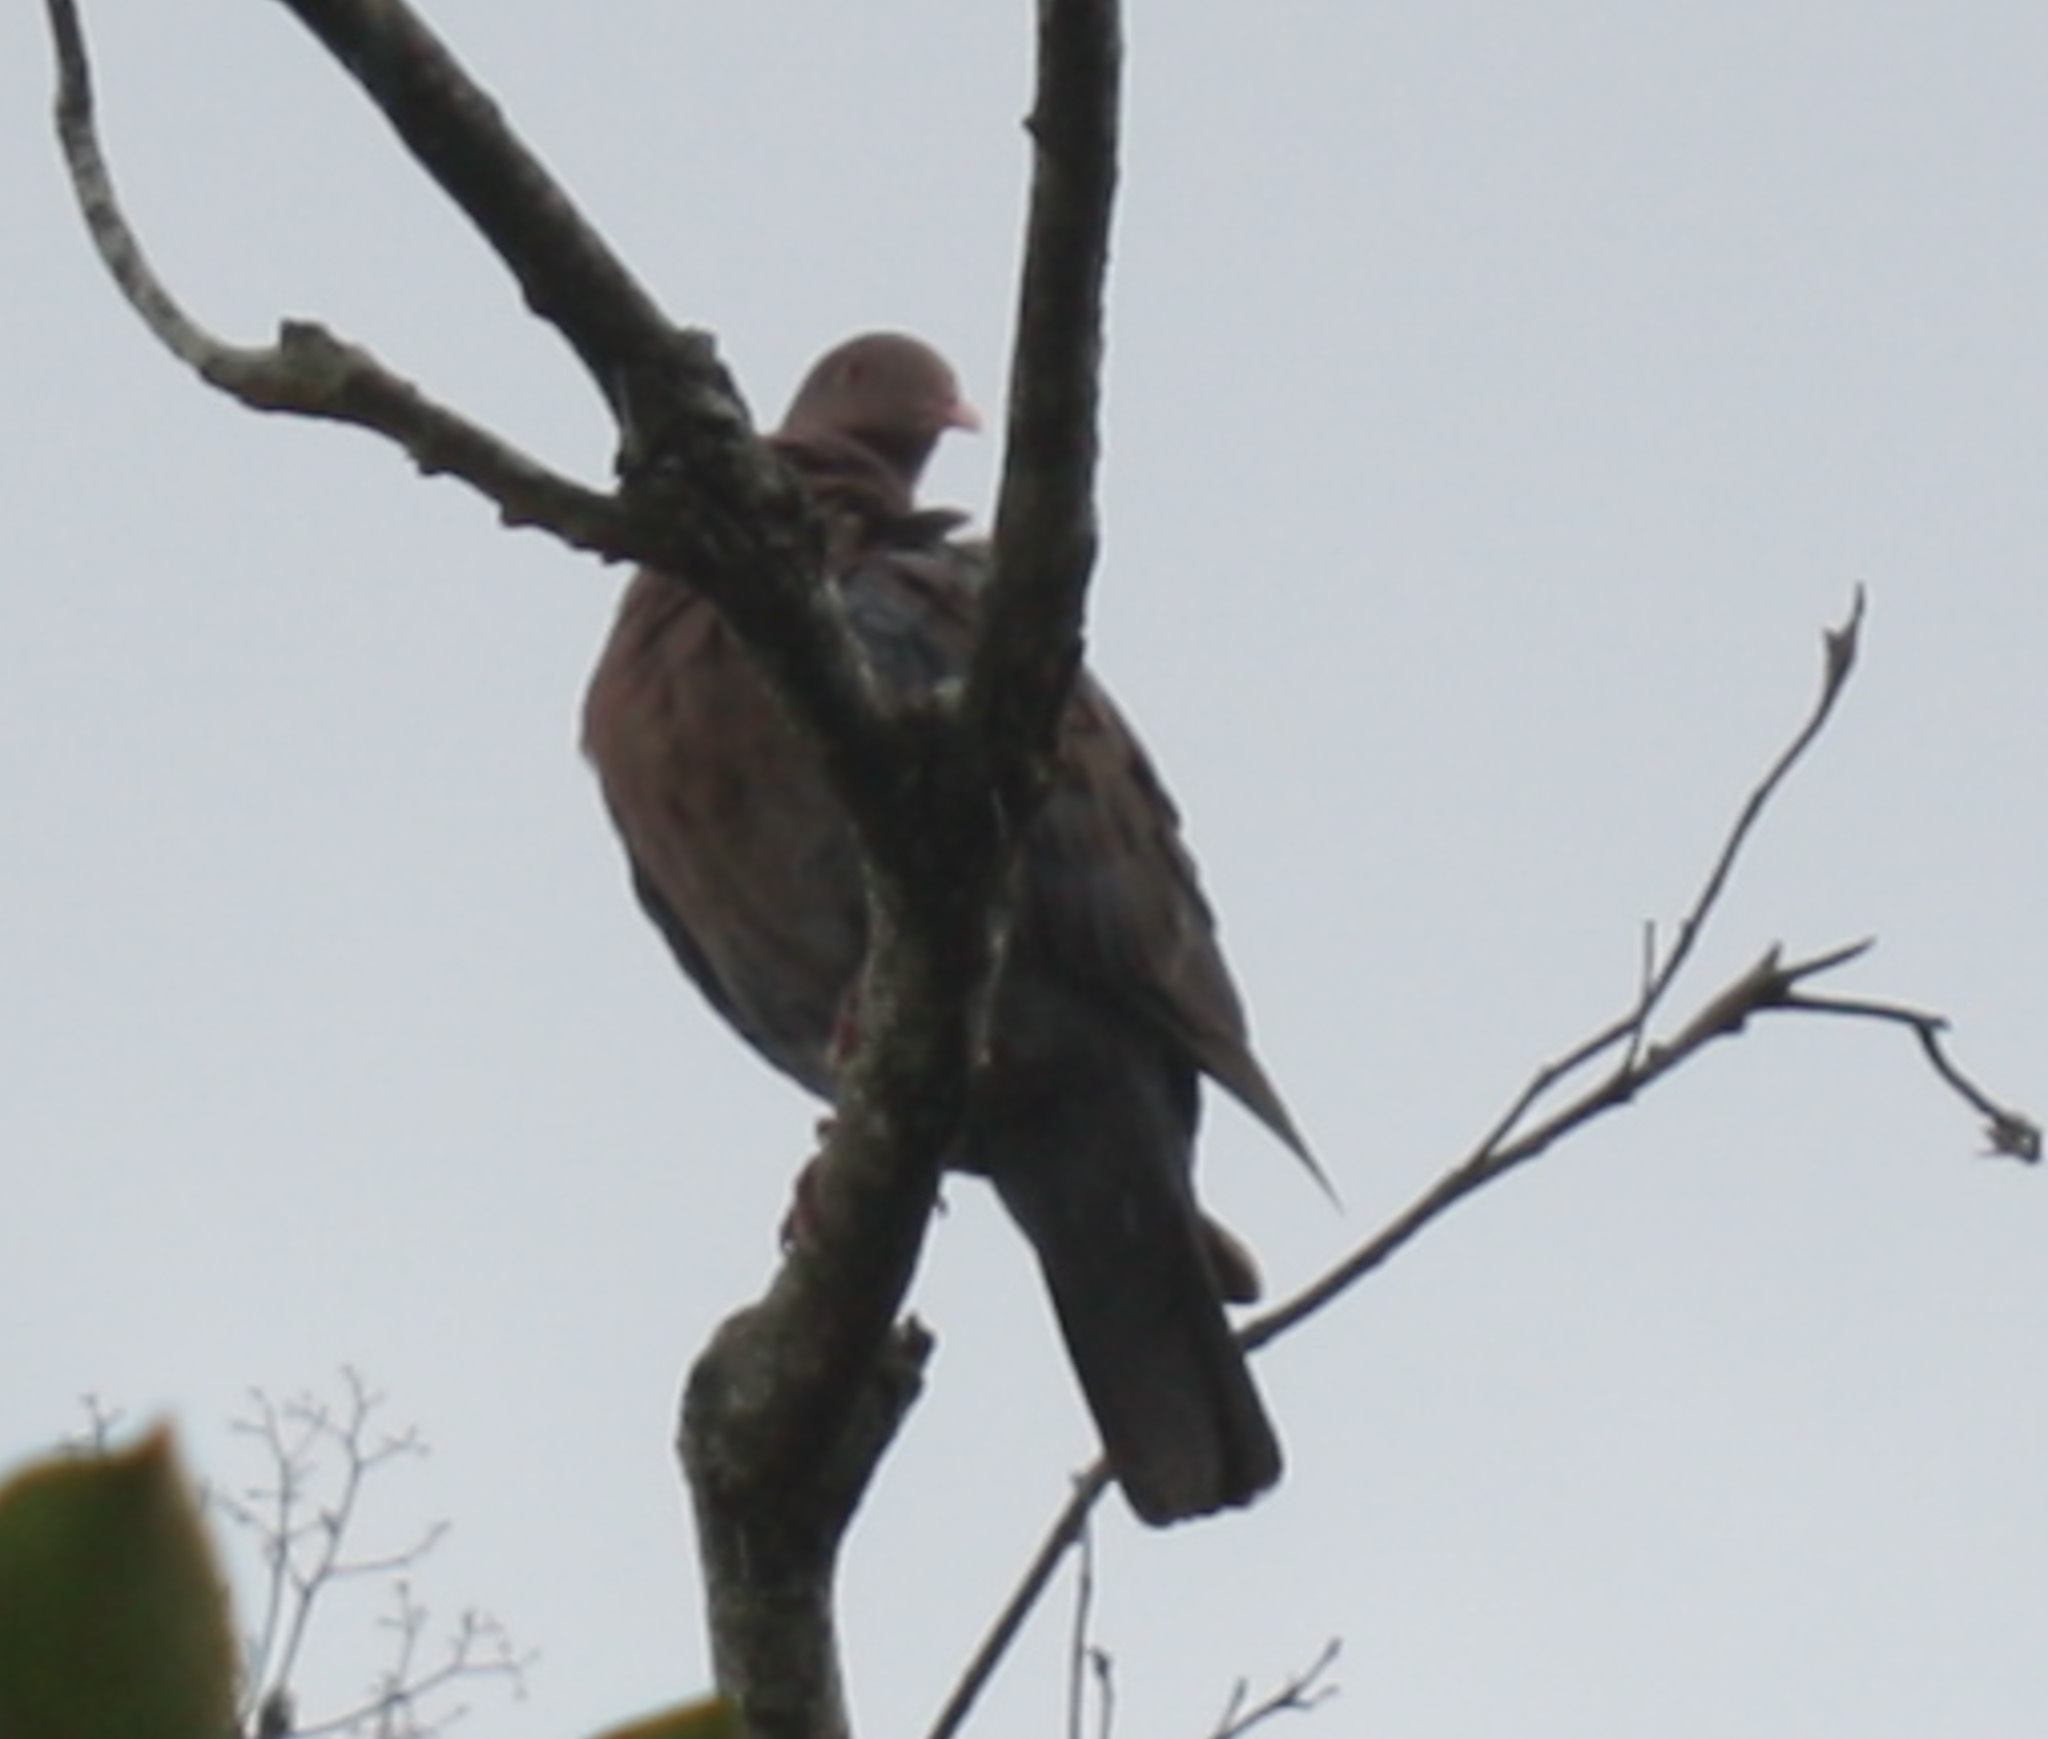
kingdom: Animalia
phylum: Chordata
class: Aves
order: Columbiformes
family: Columbidae
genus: Patagioenas
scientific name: Patagioenas flavirostris
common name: Red-billed pigeon
